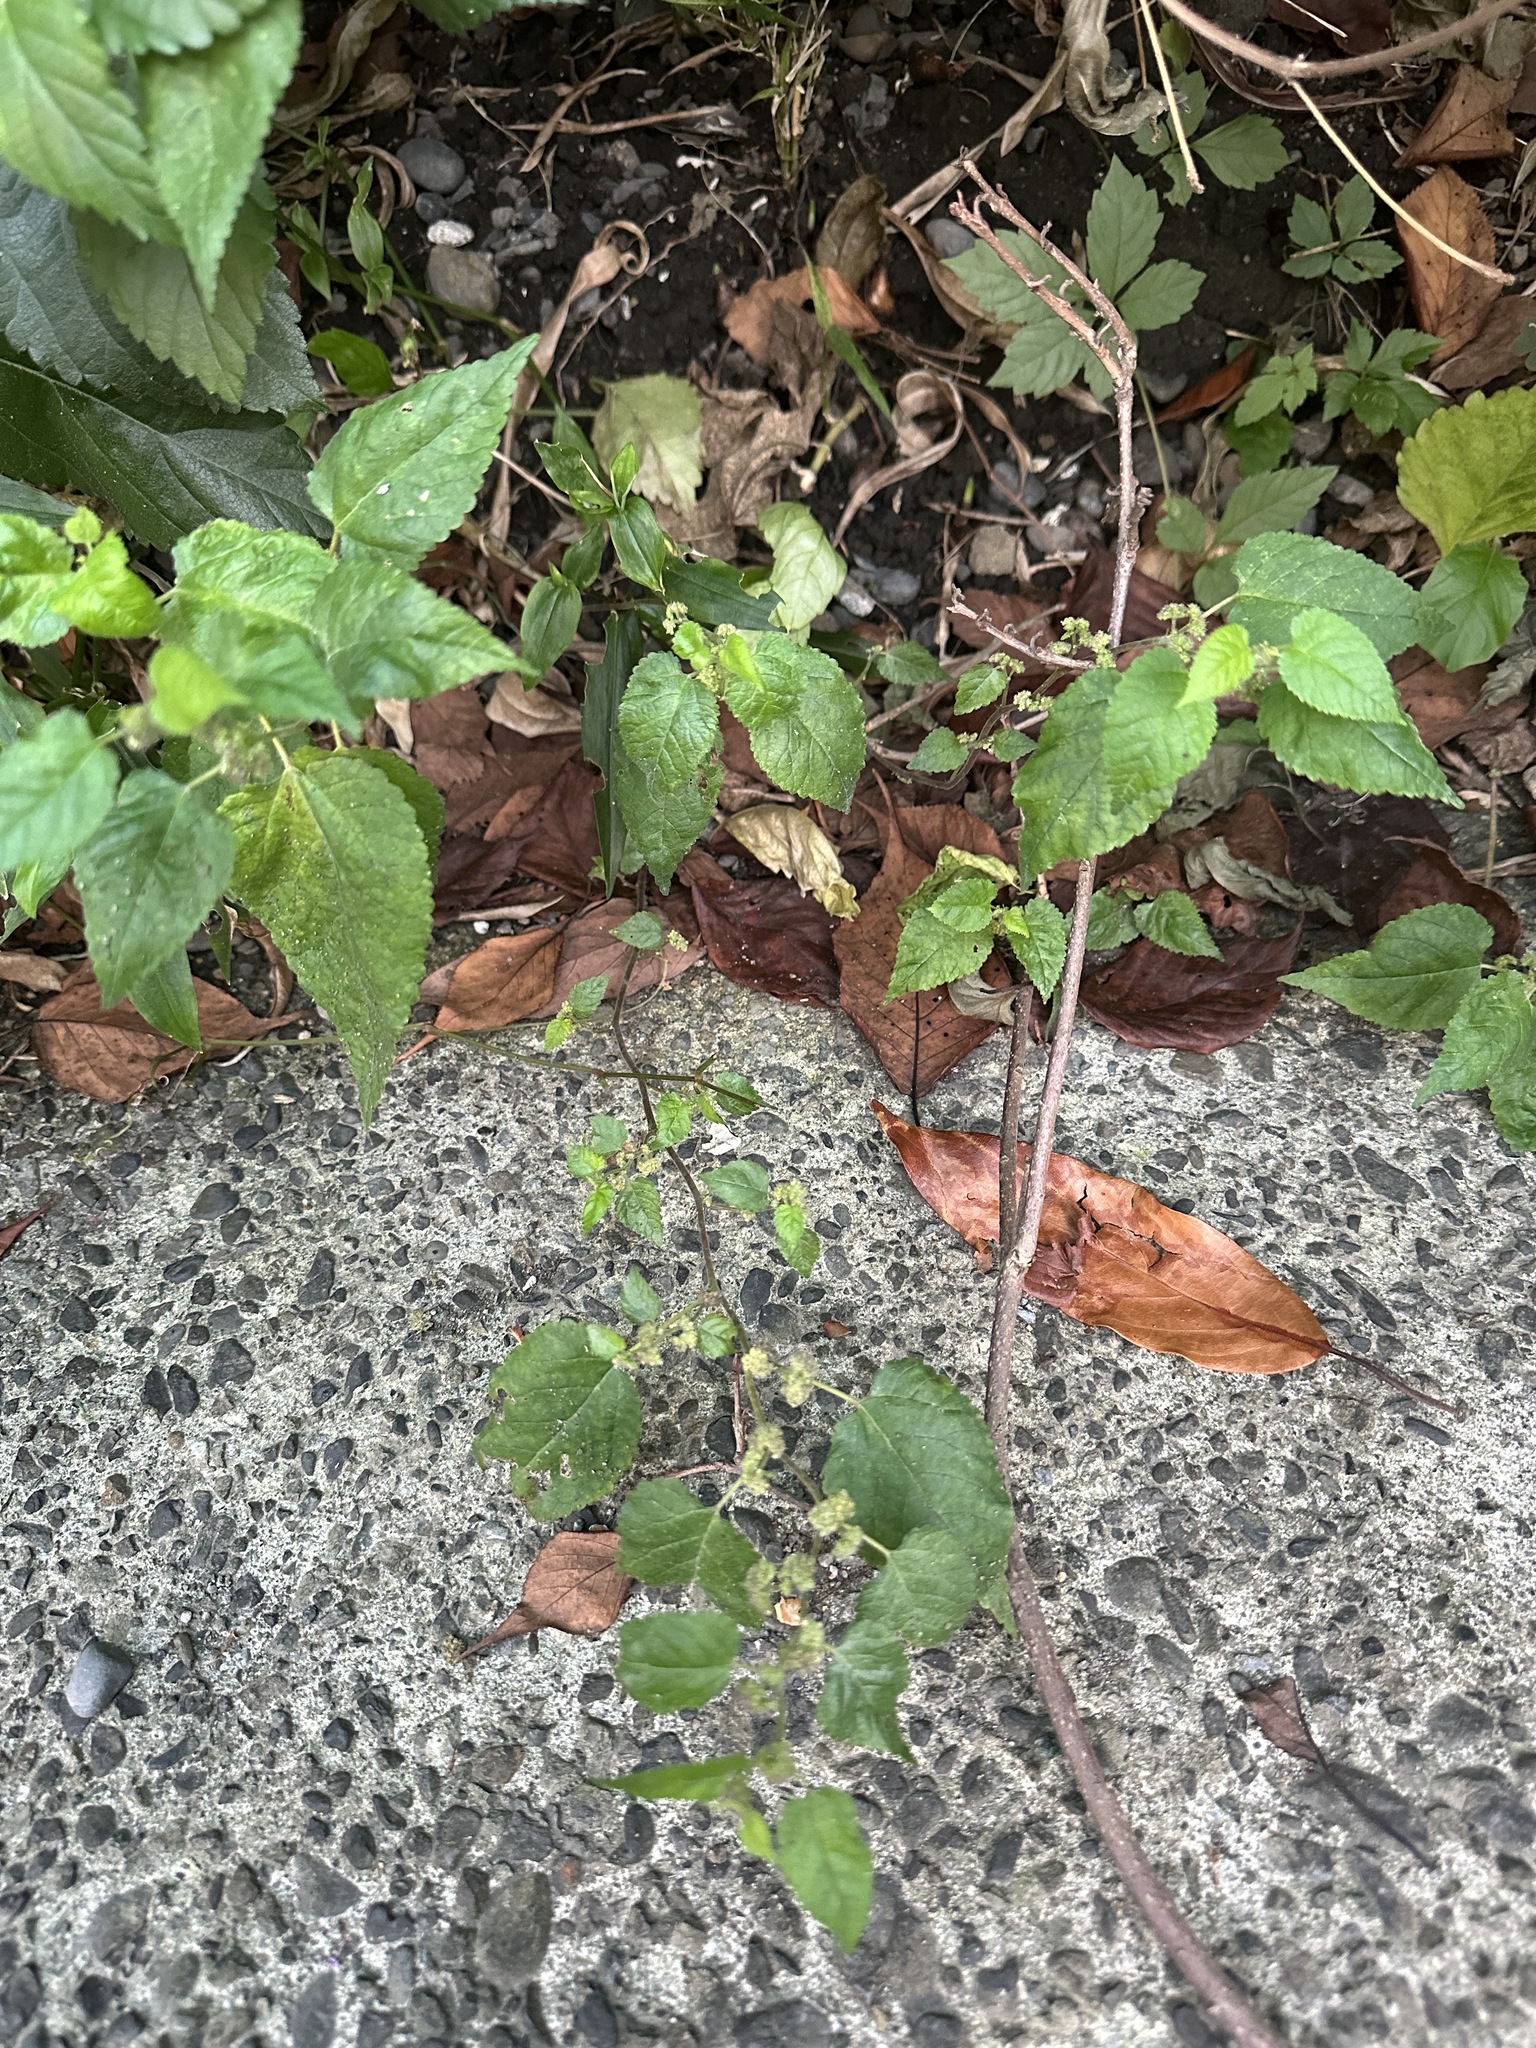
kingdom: Plantae
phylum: Tracheophyta
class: Magnoliopsida
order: Rosales
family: Moraceae
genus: Fatoua
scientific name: Fatoua villosa
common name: Hairy crabweed
